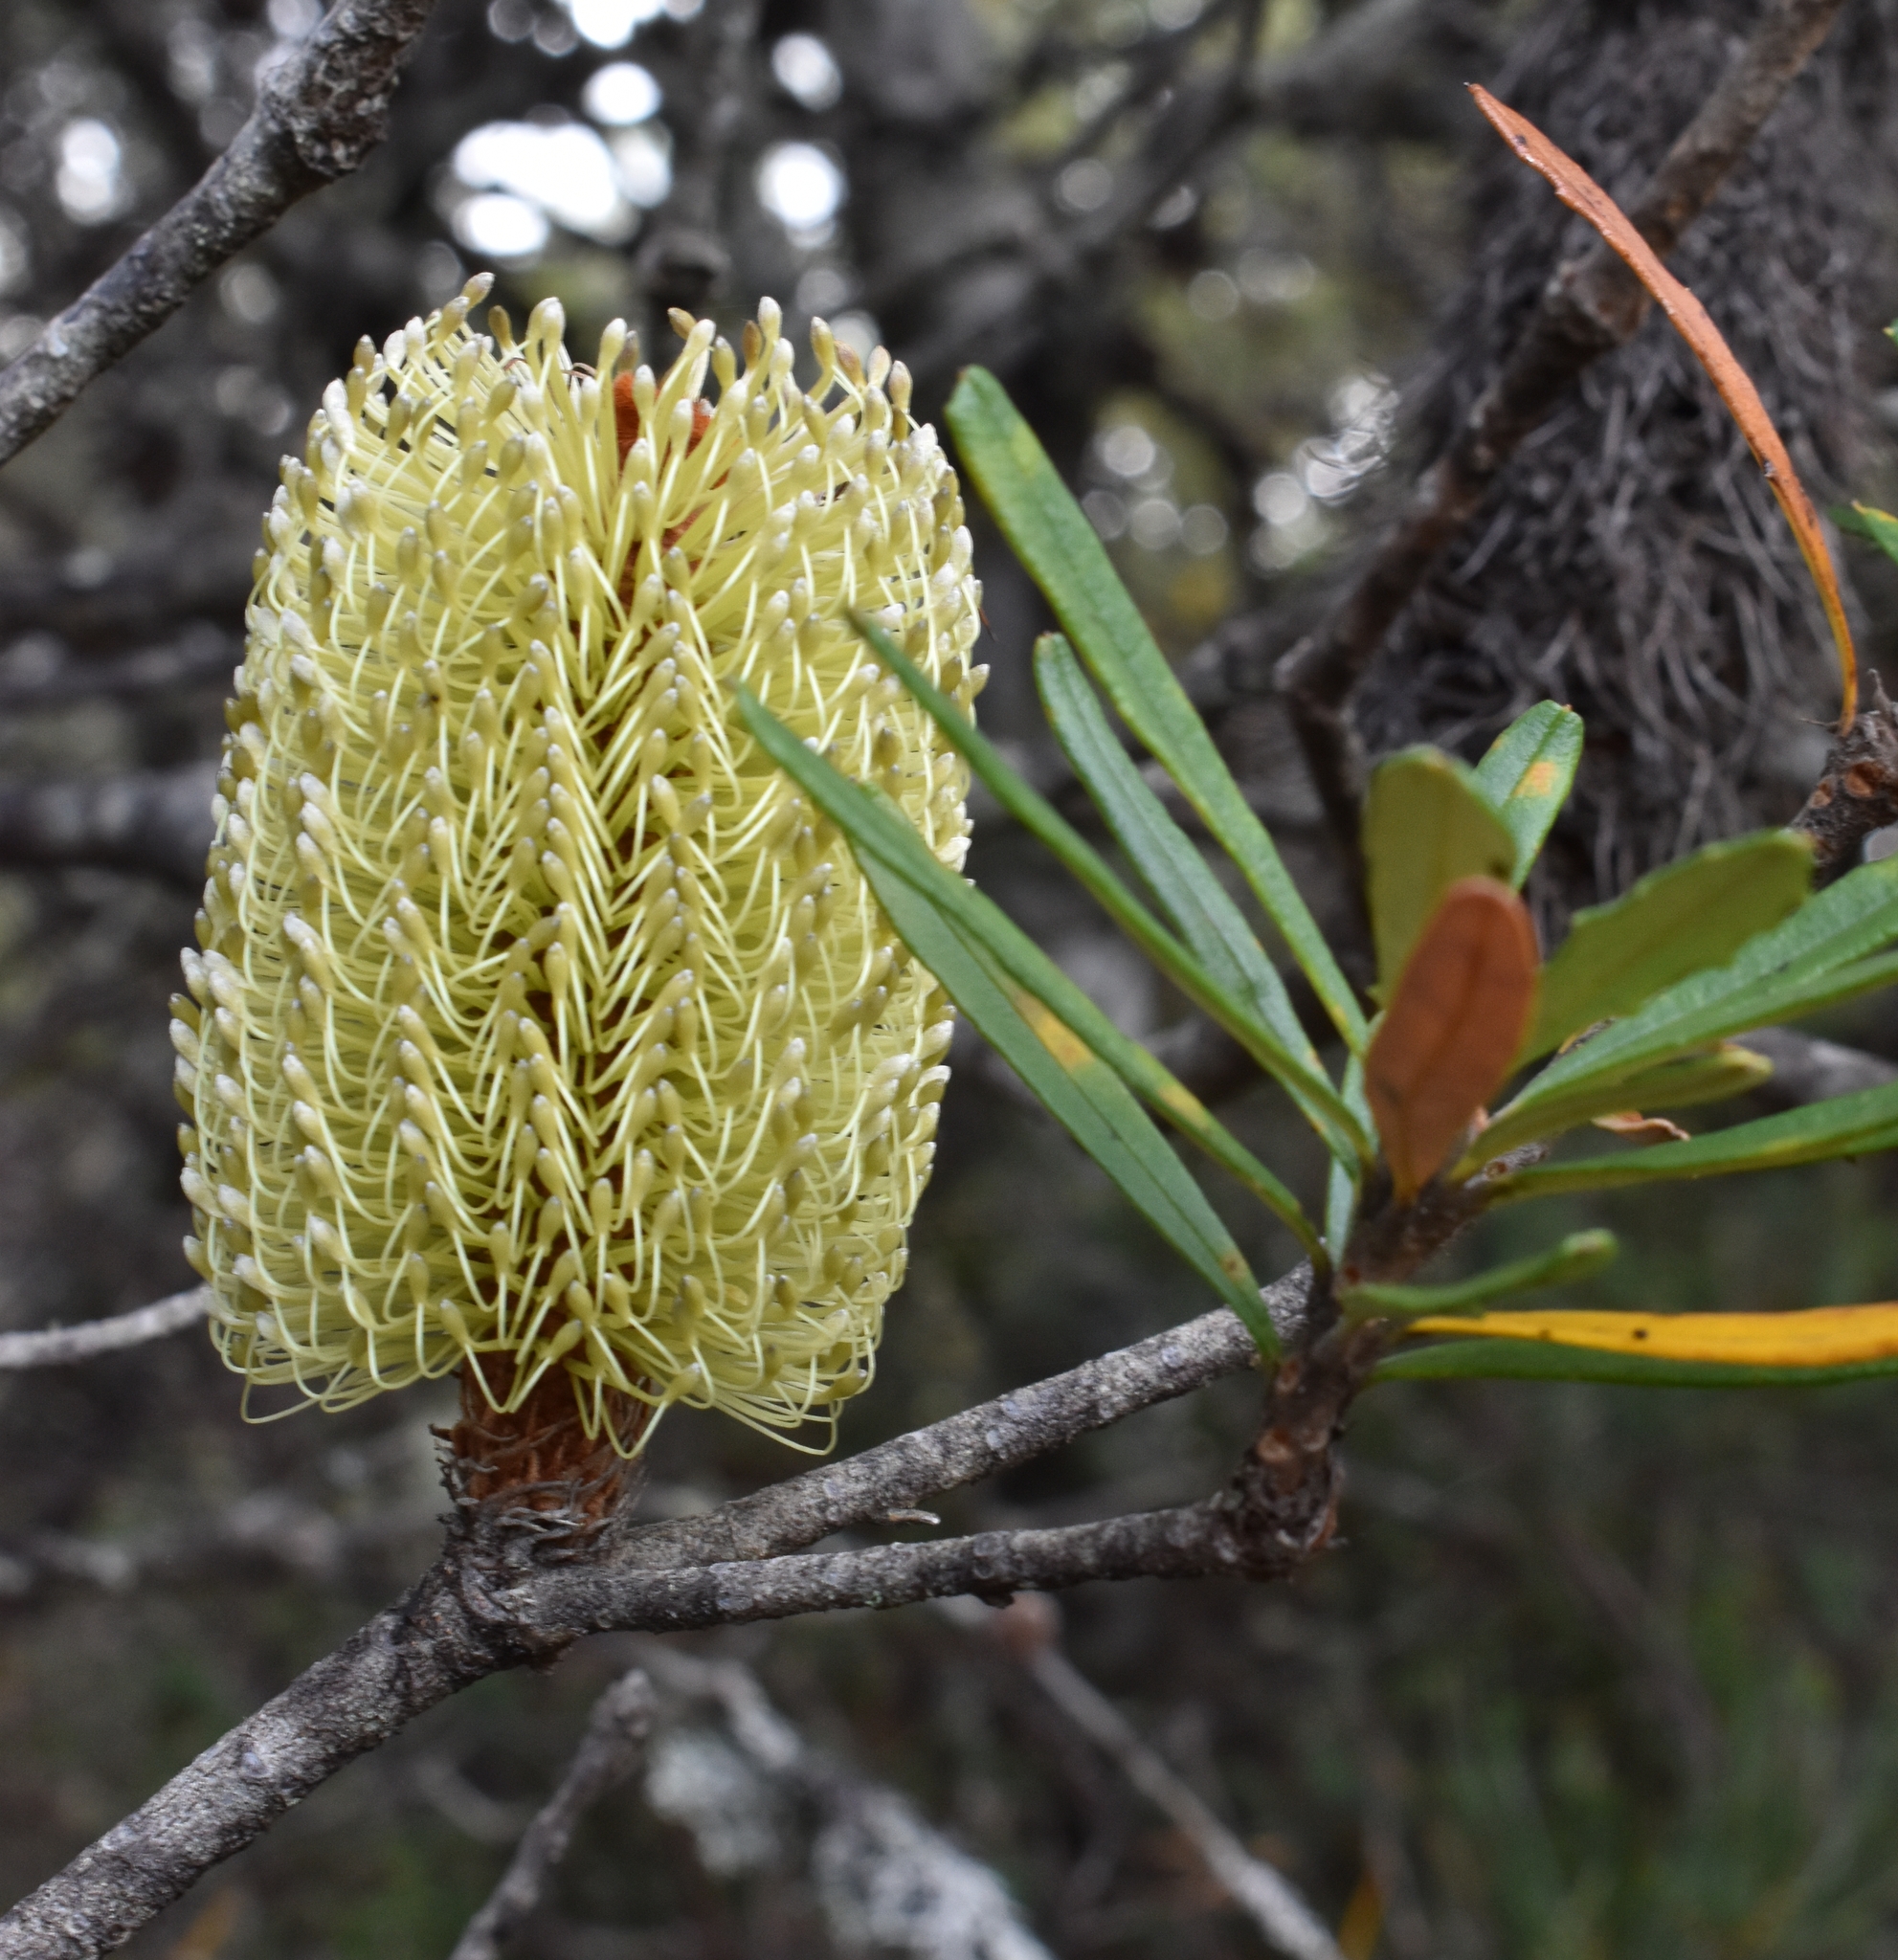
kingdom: Plantae
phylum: Tracheophyta
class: Magnoliopsida
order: Proteales
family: Proteaceae
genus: Banksia
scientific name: Banksia marginata
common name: Silver banksia
